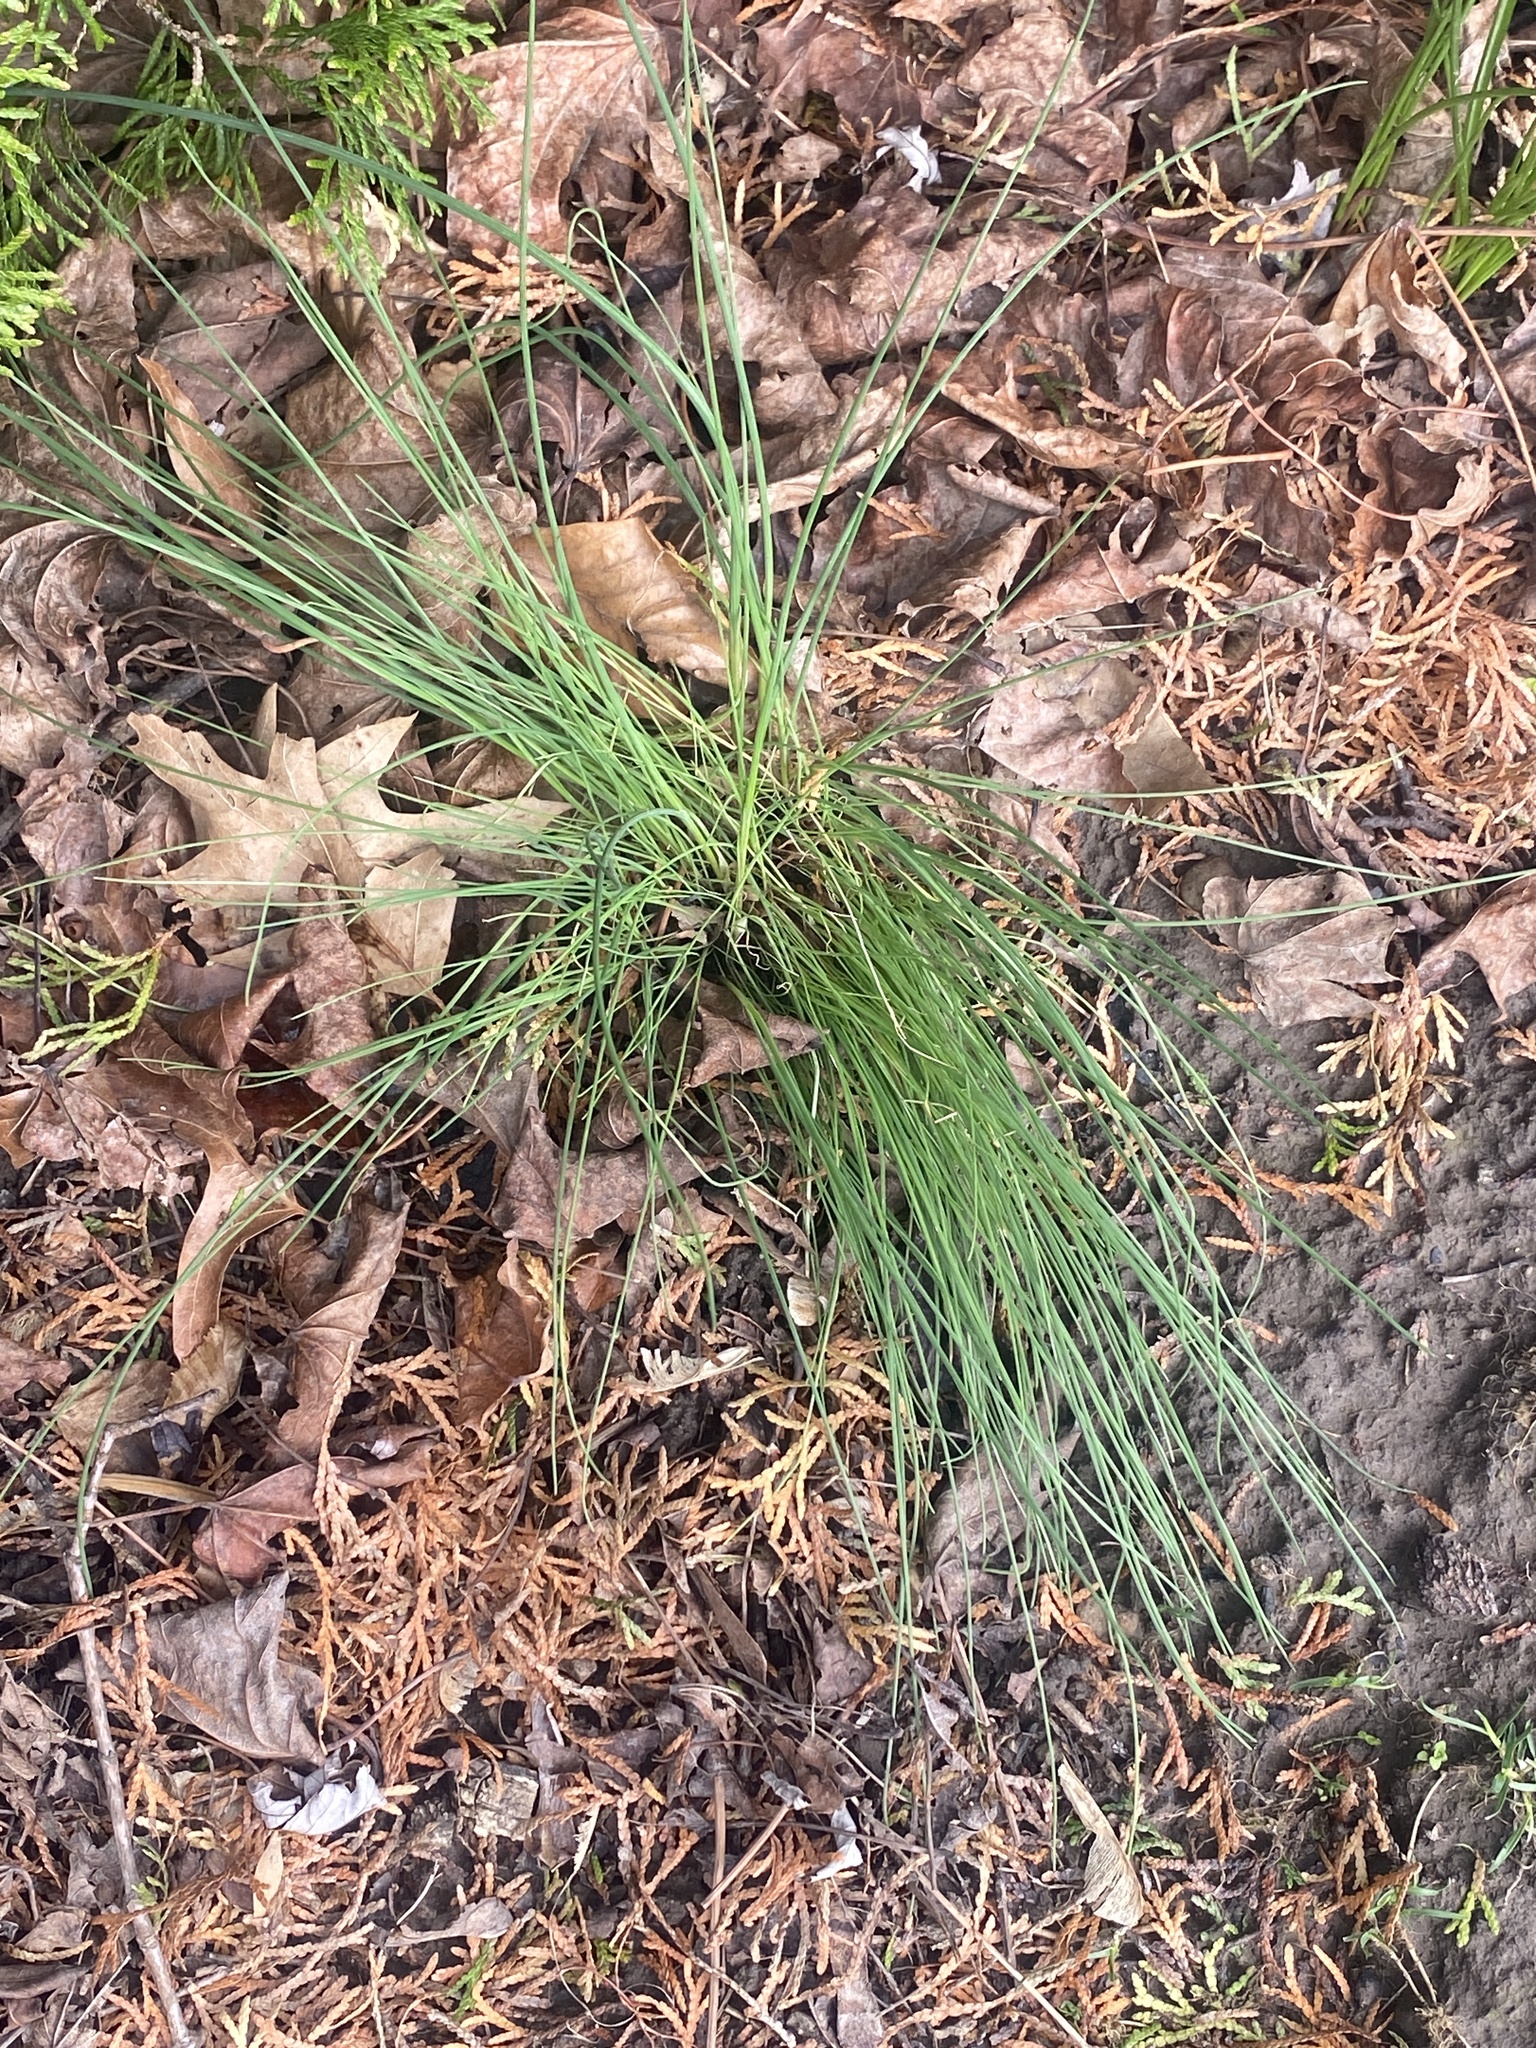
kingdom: Plantae
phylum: Tracheophyta
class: Liliopsida
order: Asparagales
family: Amaryllidaceae
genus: Allium
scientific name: Allium vineale
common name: Crow garlic
